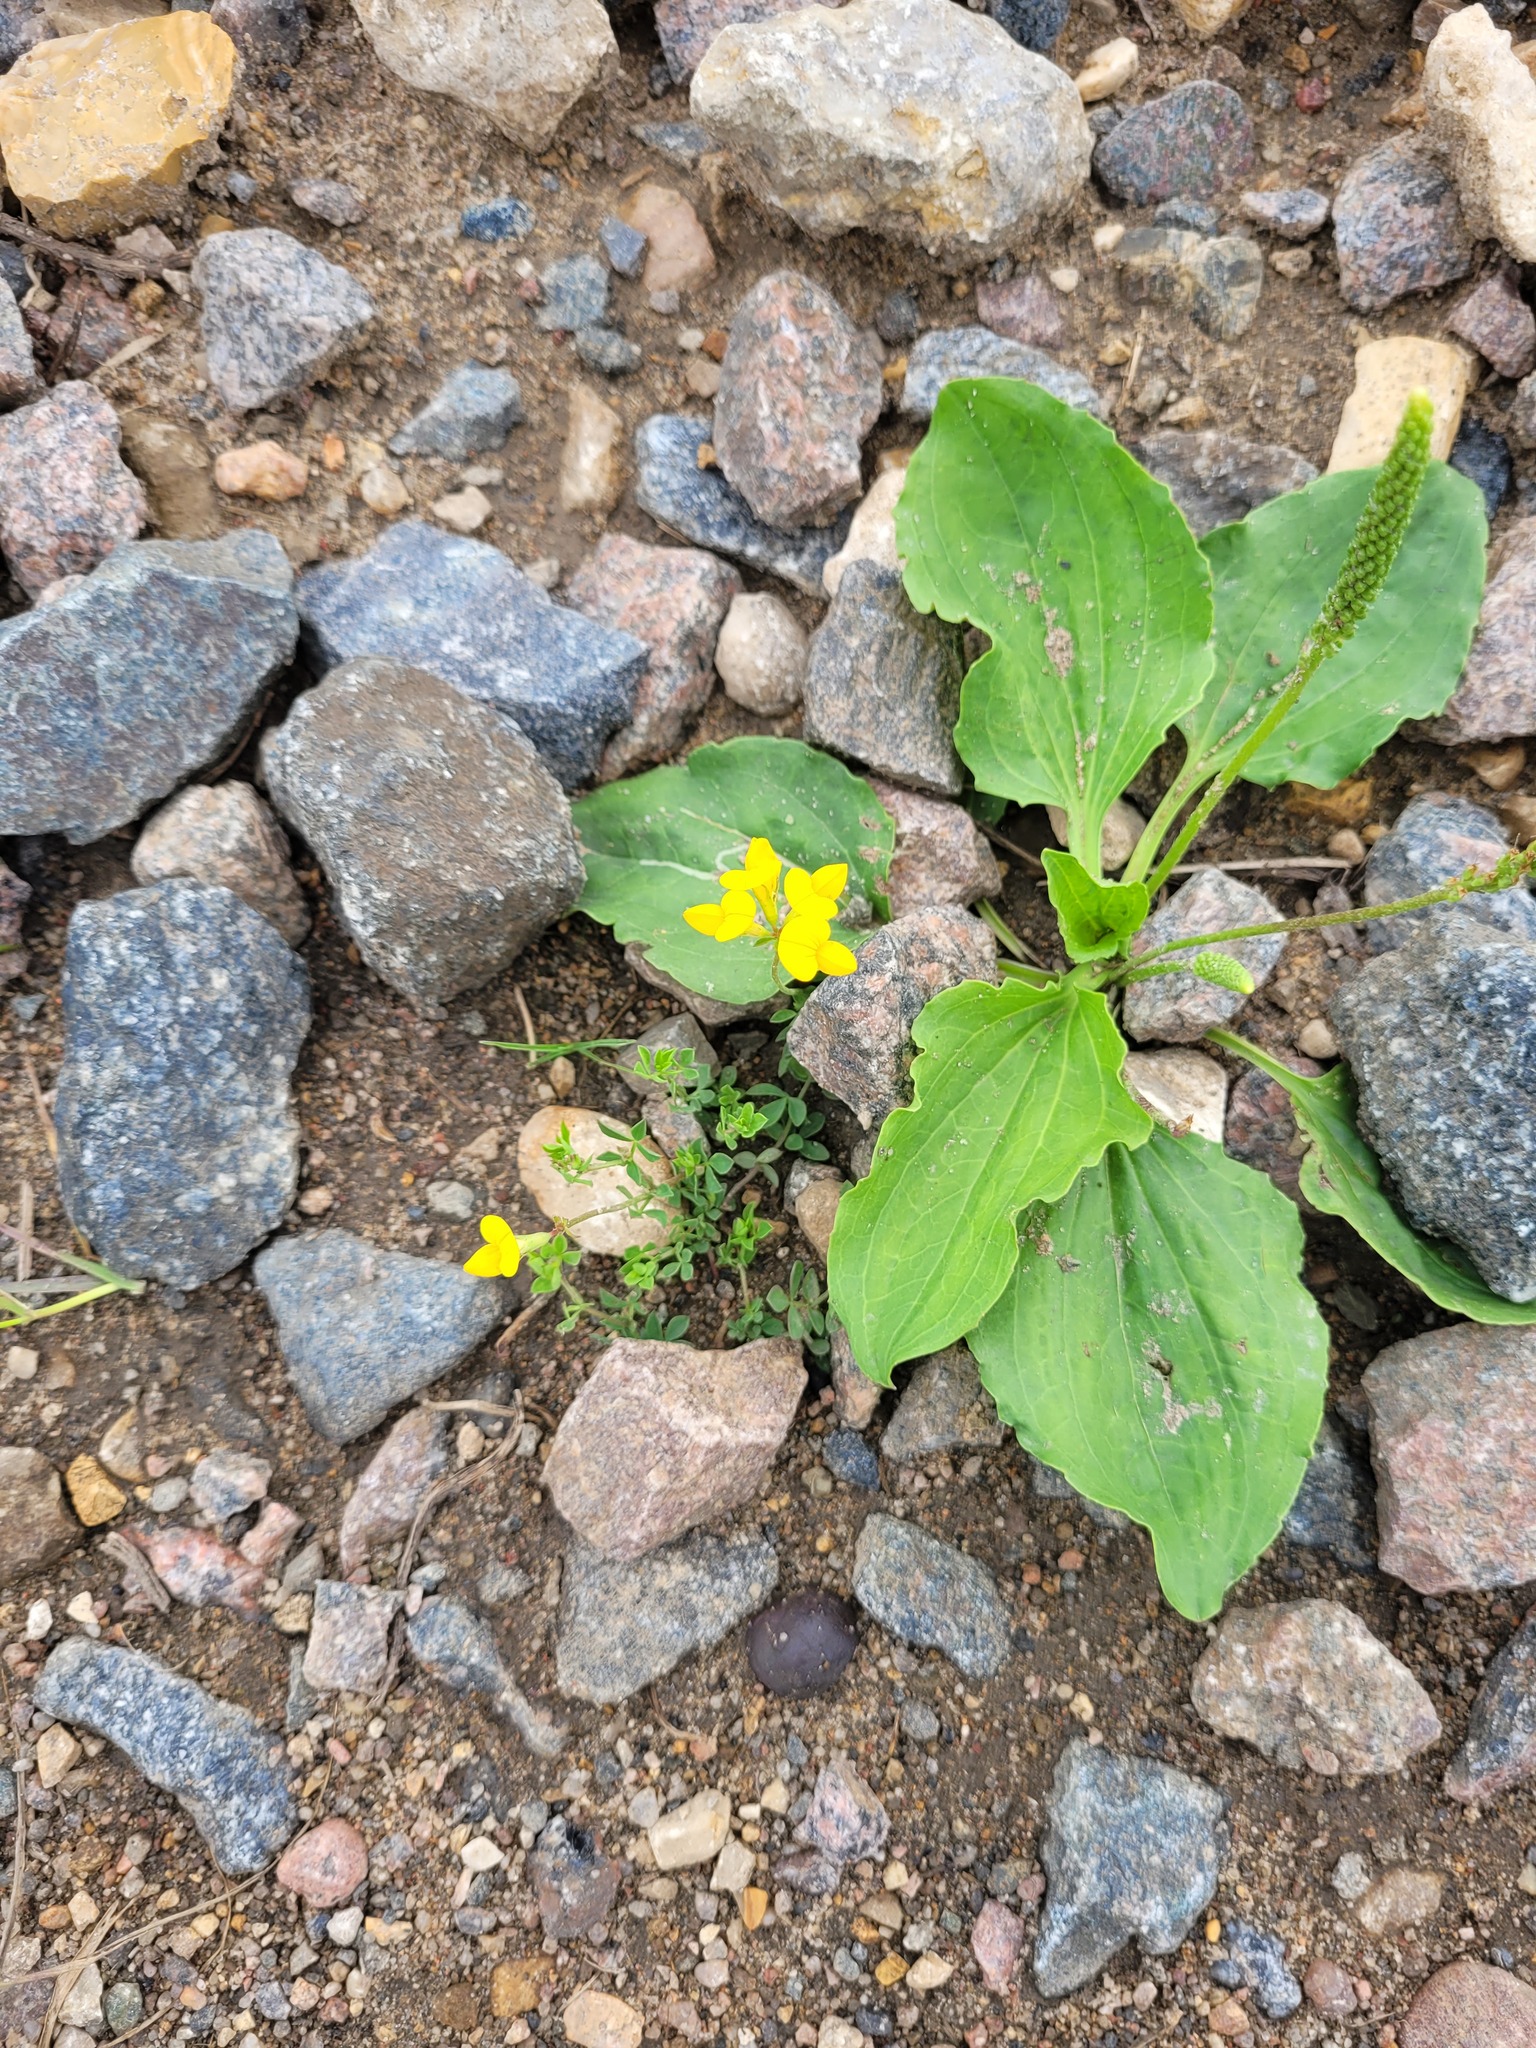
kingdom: Plantae
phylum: Tracheophyta
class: Magnoliopsida
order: Fabales
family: Fabaceae
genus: Lotus
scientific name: Lotus corniculatus
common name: Common bird's-foot-trefoil
